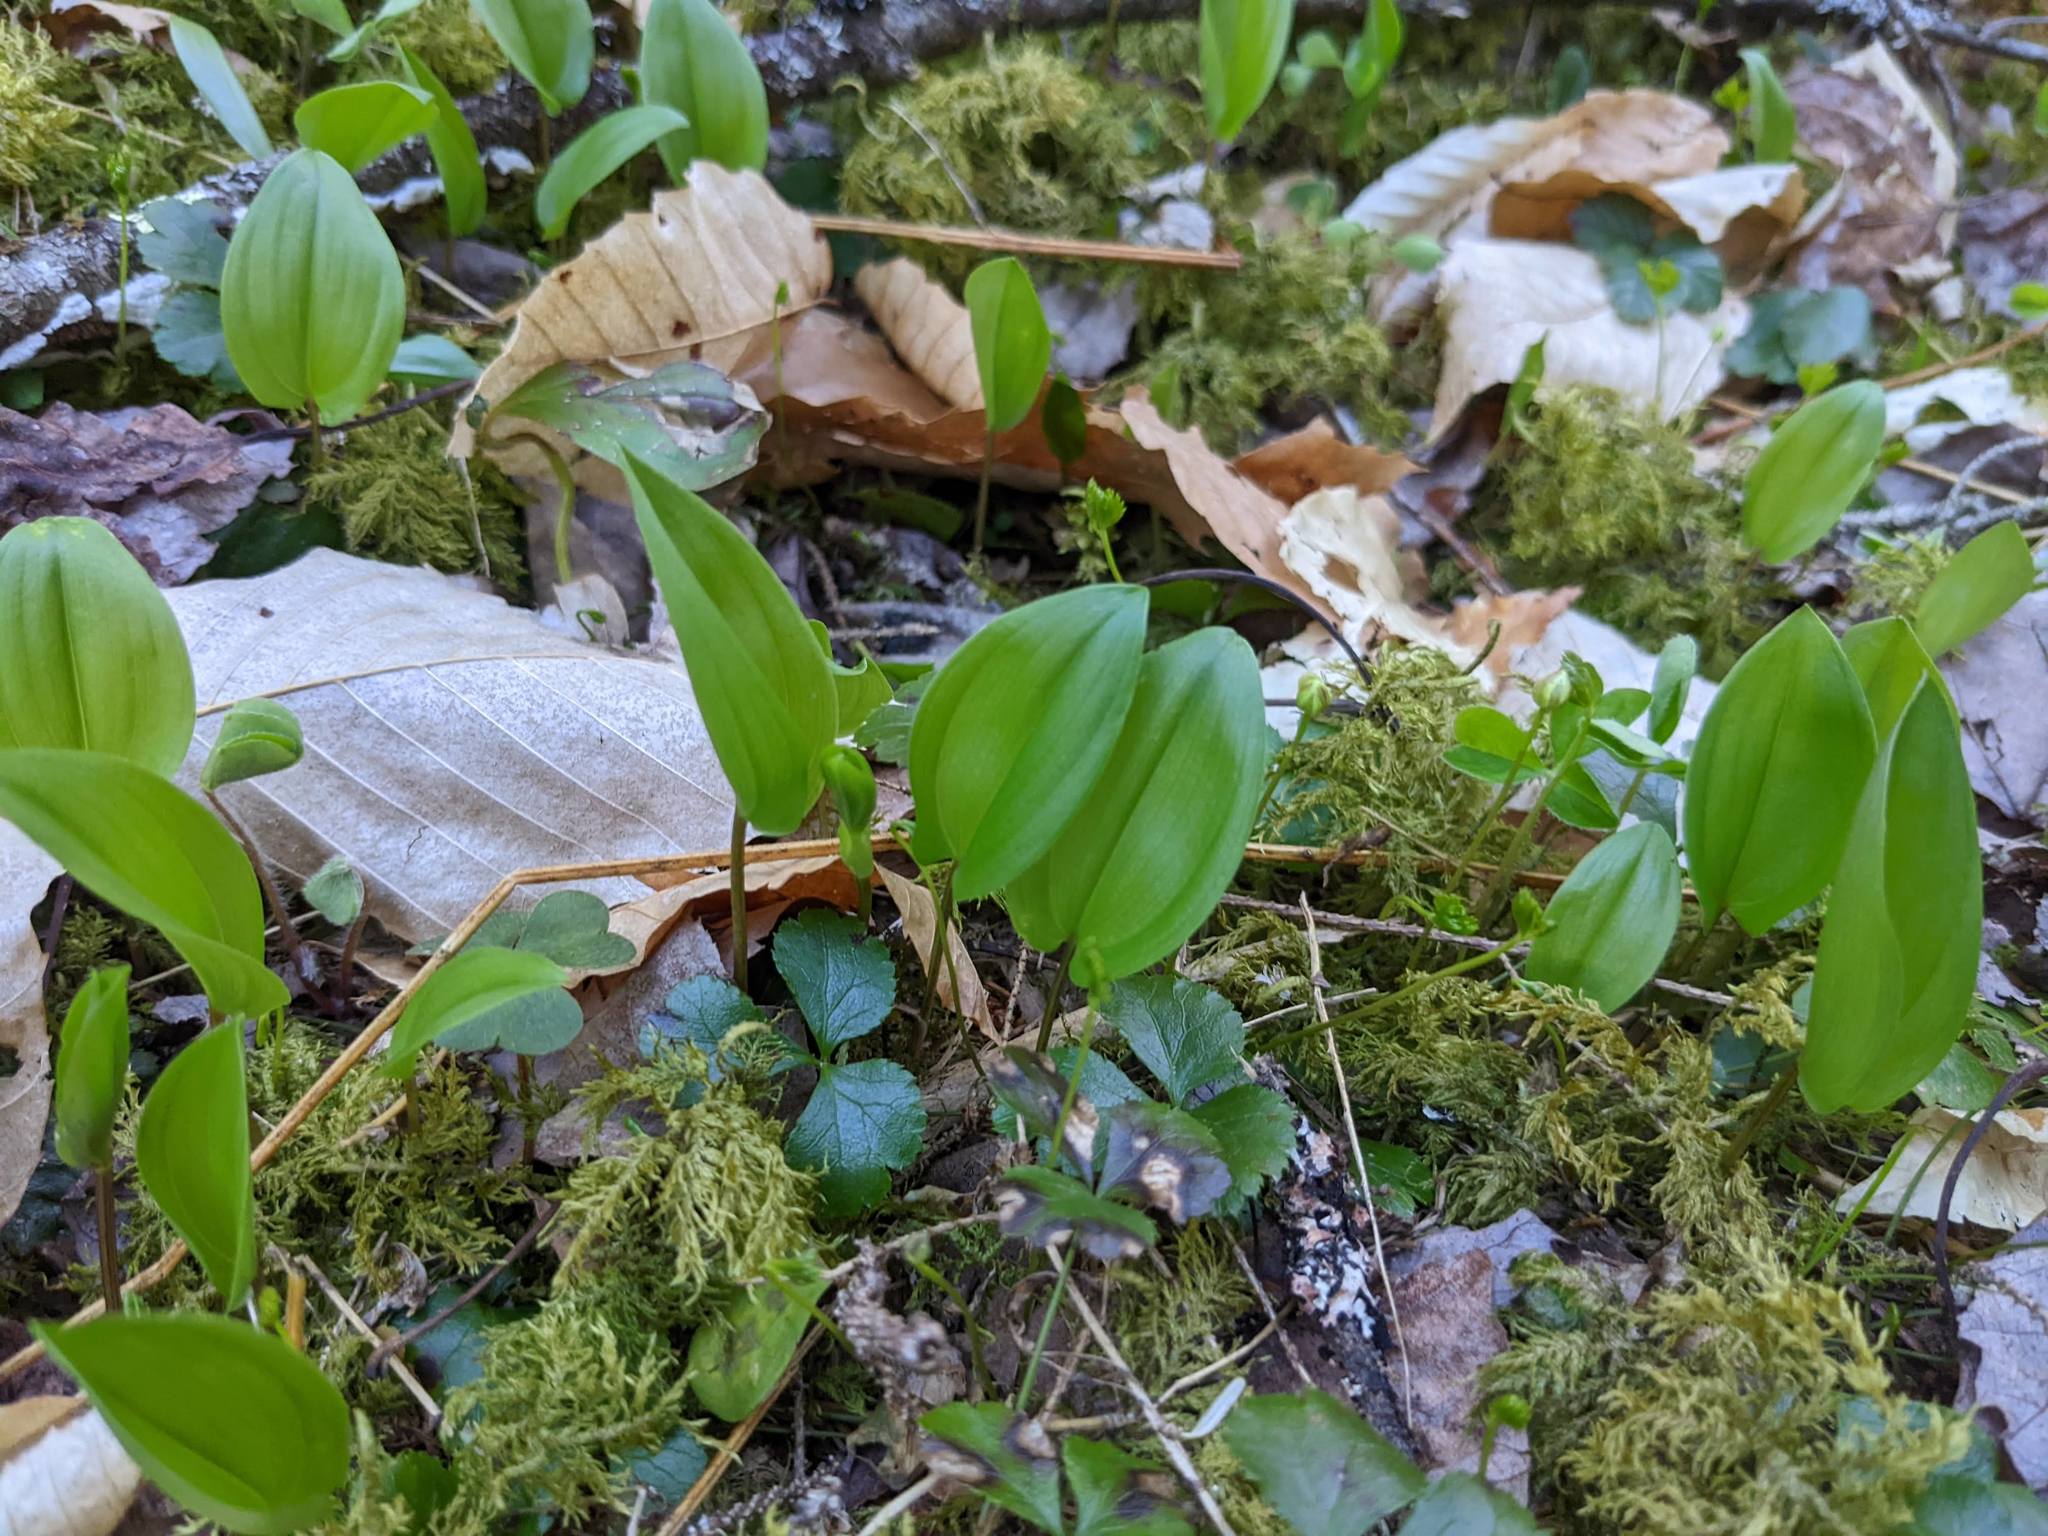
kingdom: Plantae
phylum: Tracheophyta
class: Liliopsida
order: Asparagales
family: Asparagaceae
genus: Maianthemum
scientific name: Maianthemum canadense
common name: False lily-of-the-valley
